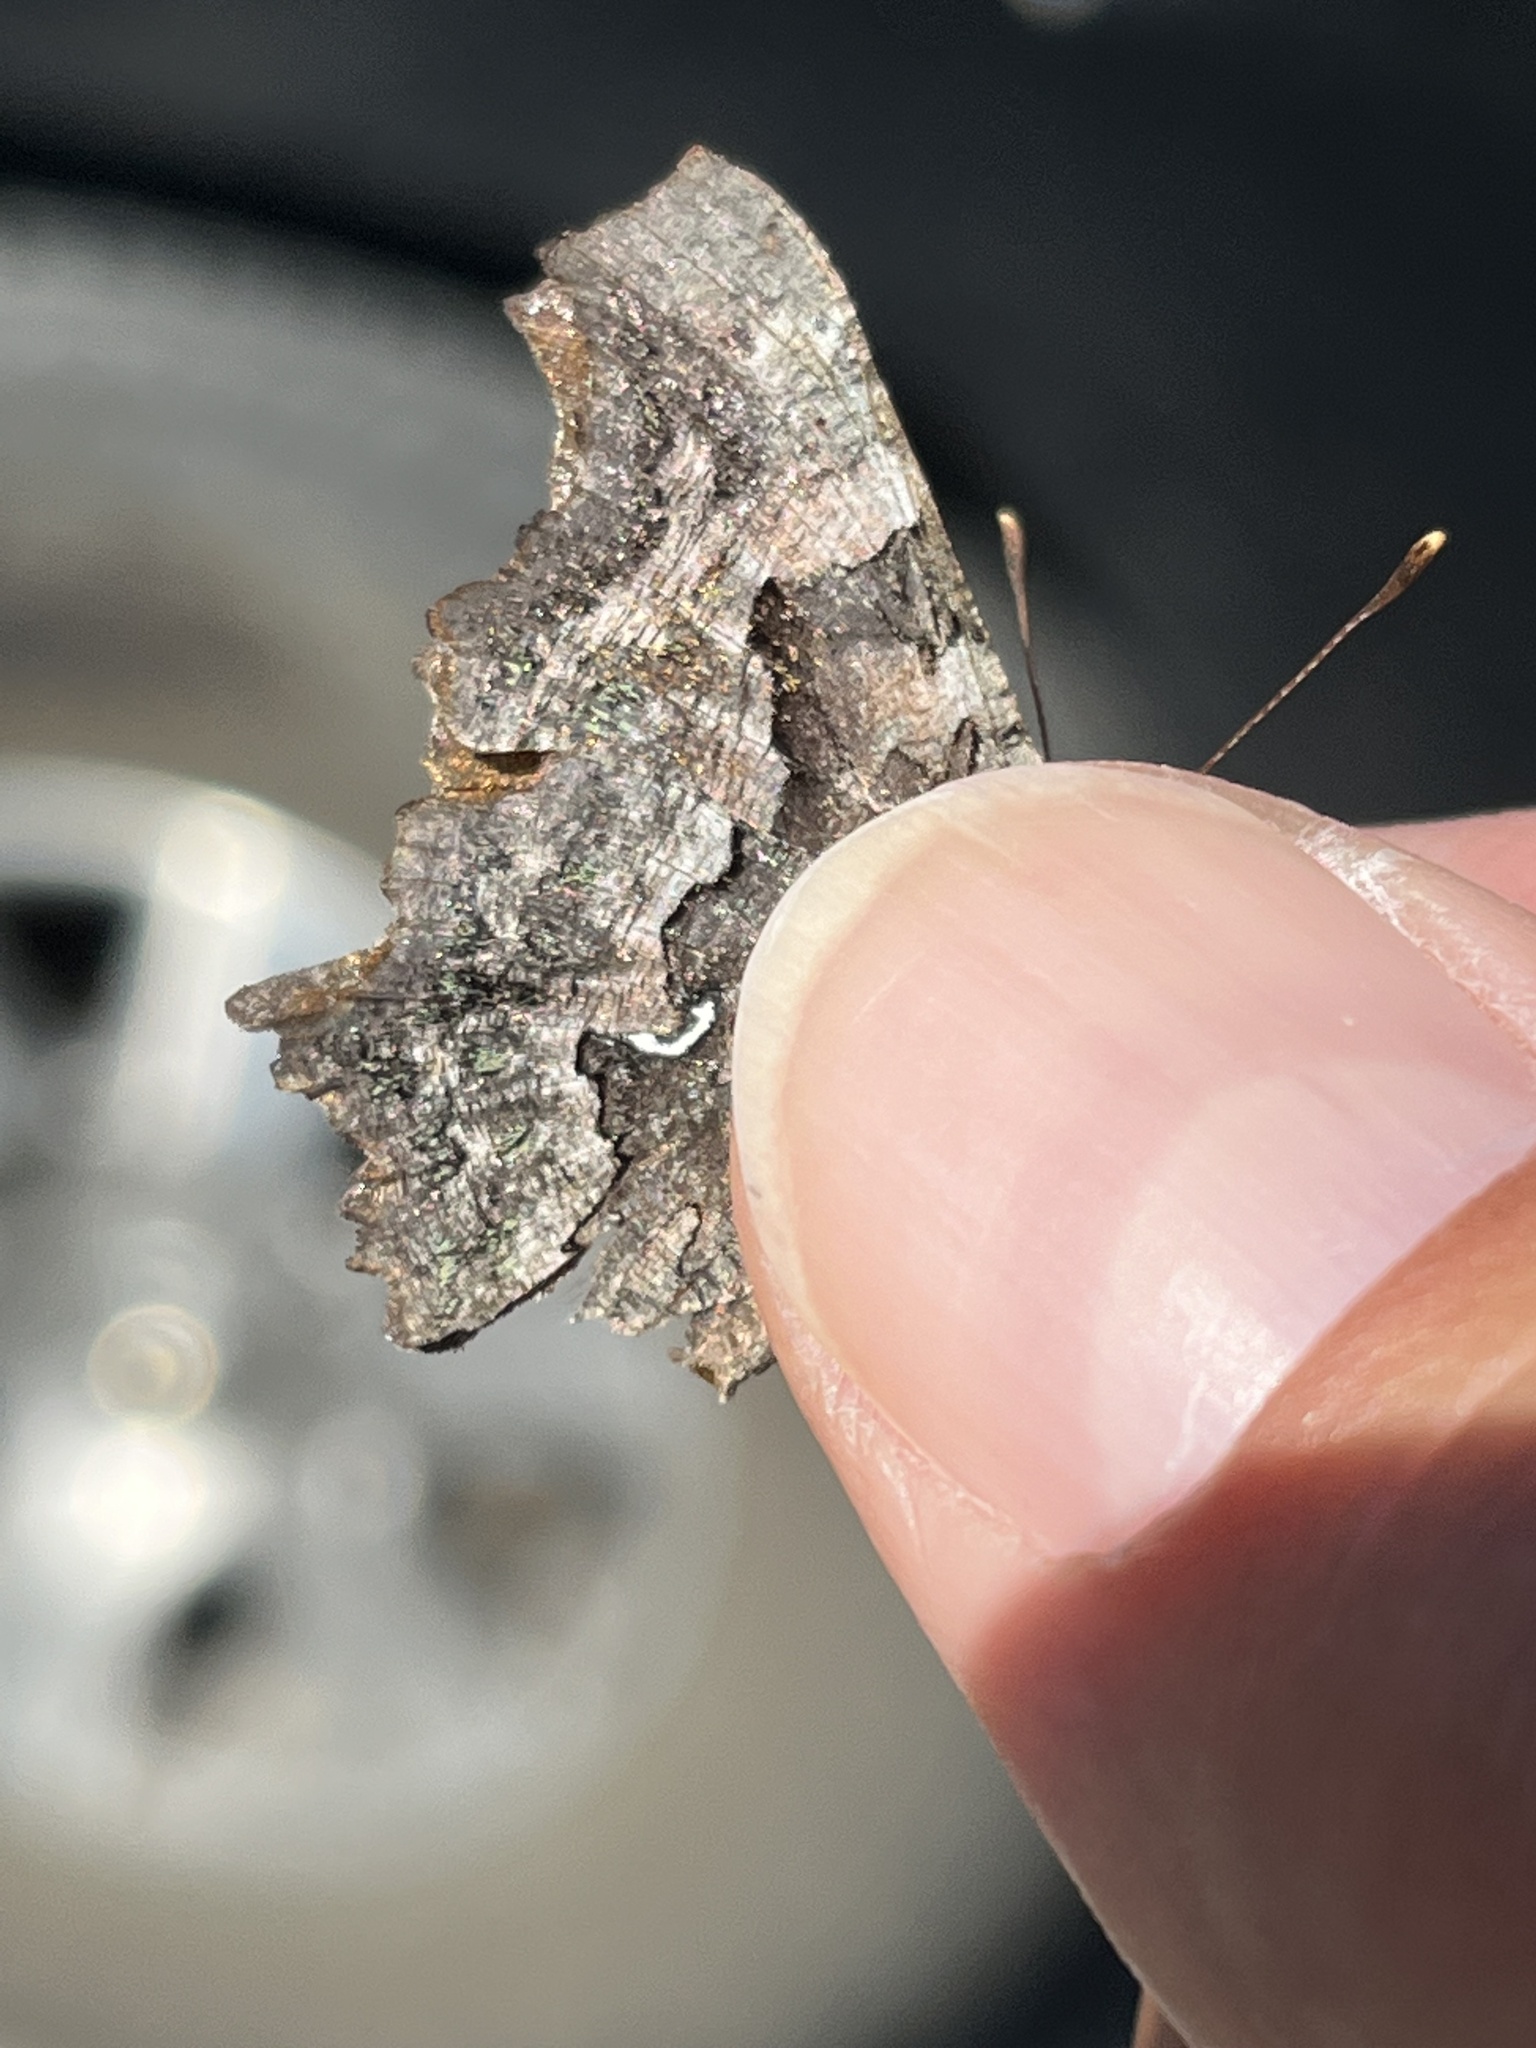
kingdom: Animalia
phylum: Arthropoda
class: Insecta
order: Lepidoptera
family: Nymphalidae
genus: Polygonia
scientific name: Polygonia faunus
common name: Green comma
